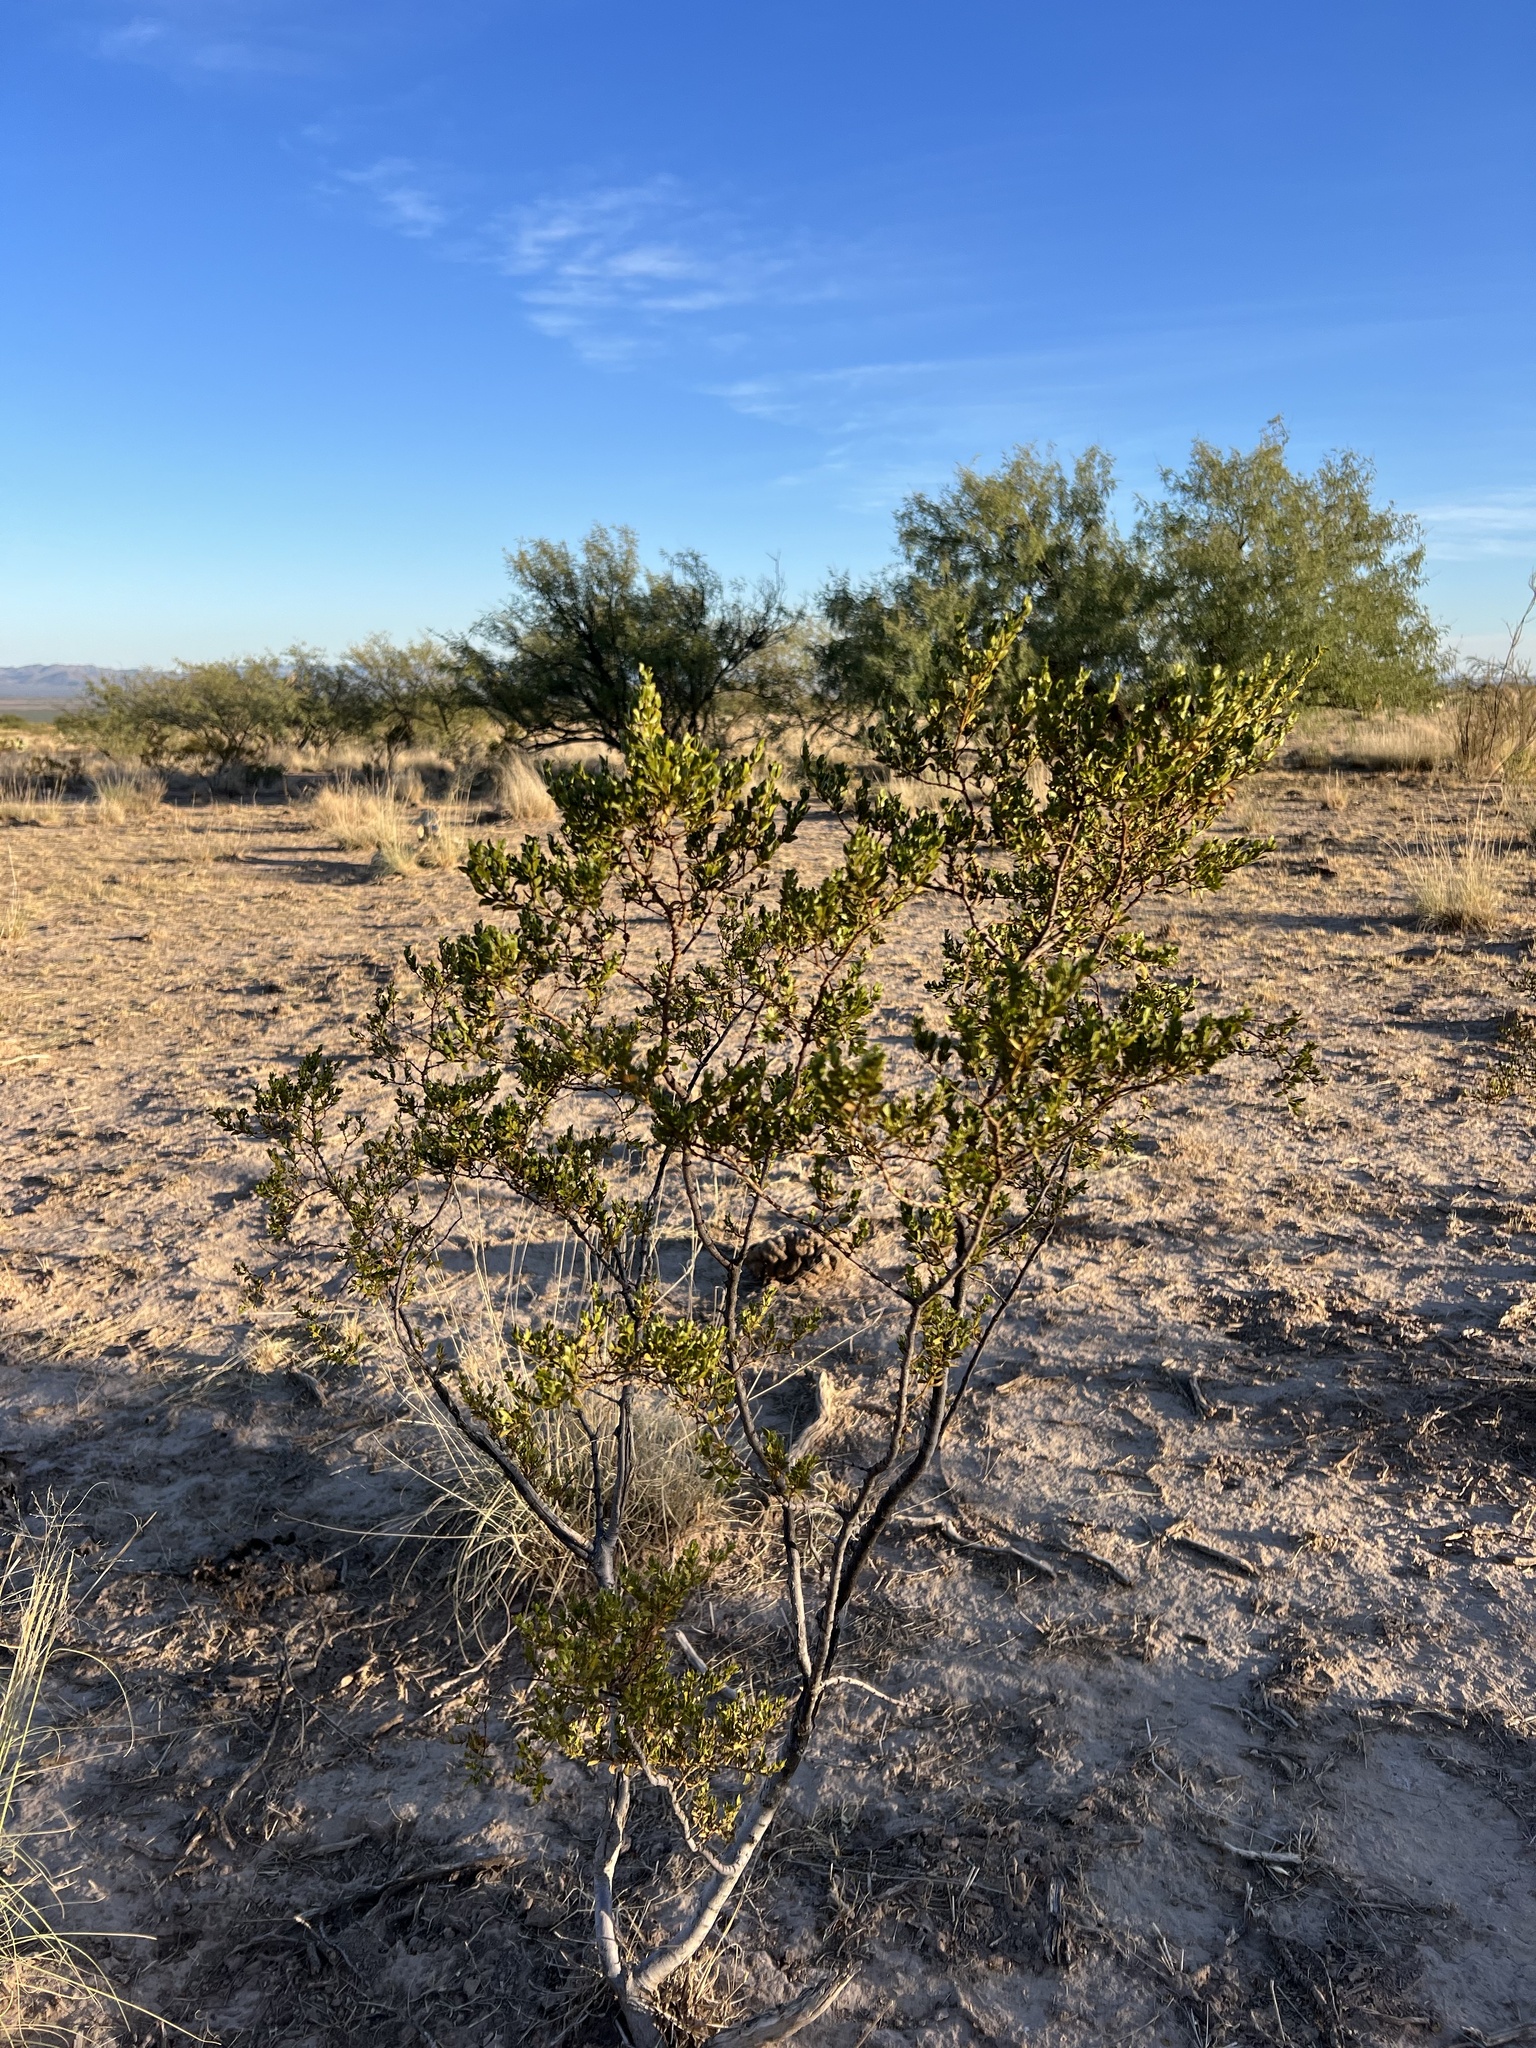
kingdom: Plantae
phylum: Tracheophyta
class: Magnoliopsida
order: Zygophyllales
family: Zygophyllaceae
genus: Larrea
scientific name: Larrea tridentata
